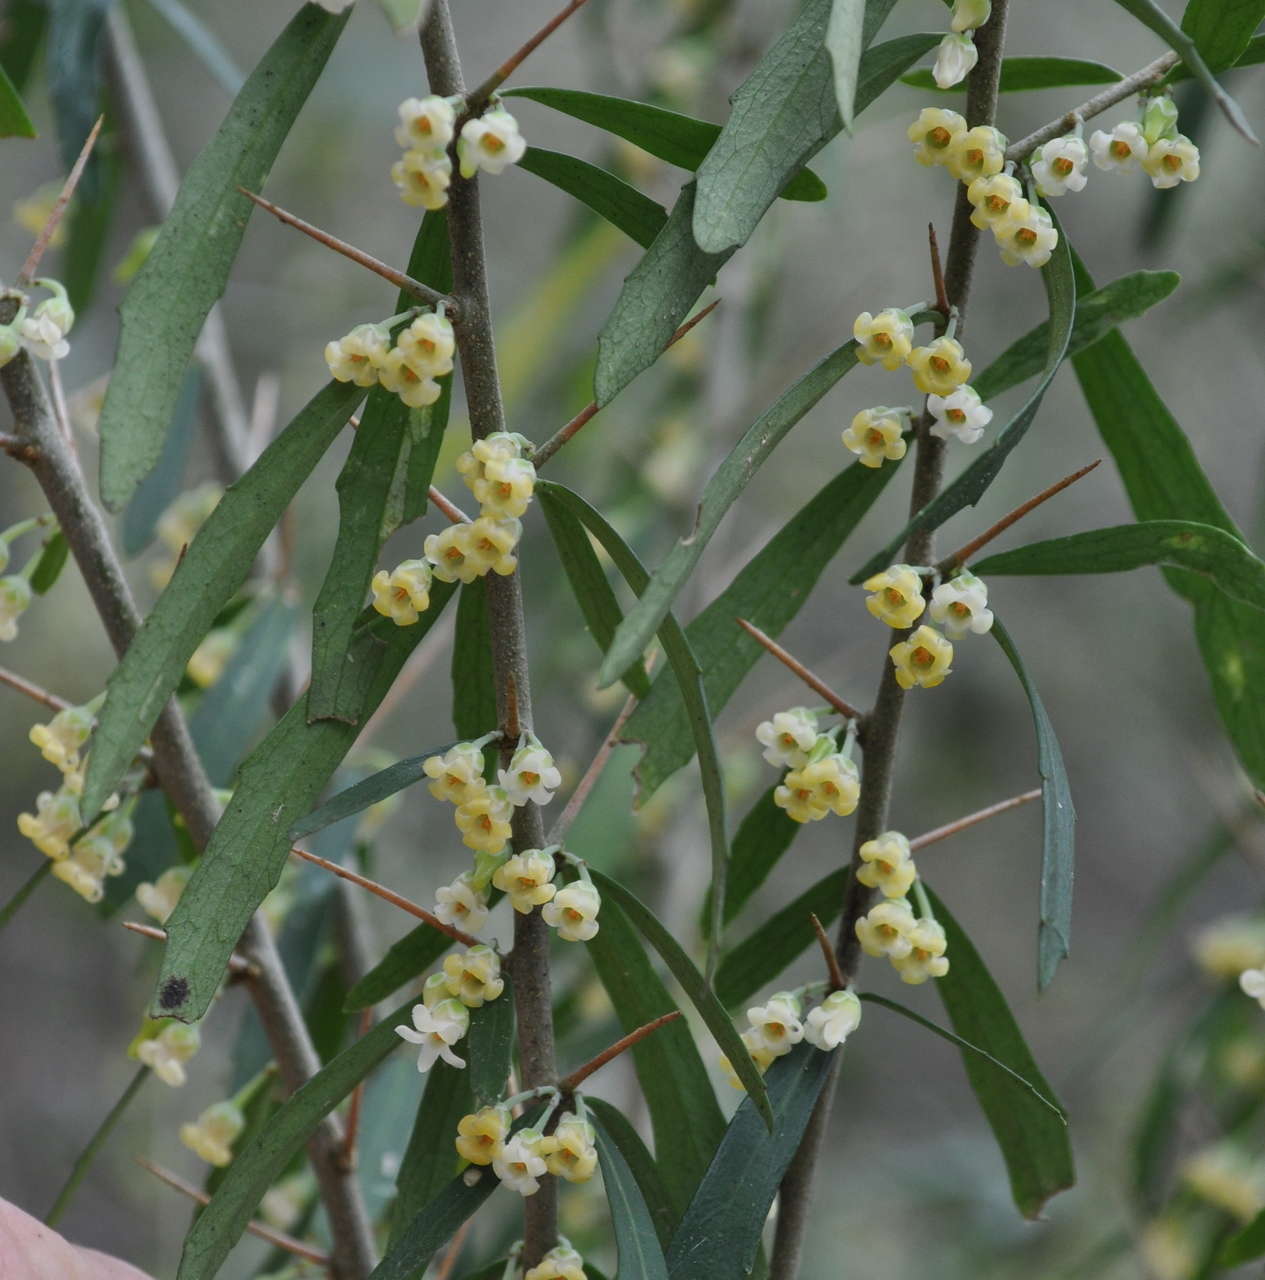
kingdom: Plantae
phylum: Tracheophyta
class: Magnoliopsida
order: Malpighiales
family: Violaceae
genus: Melicytus
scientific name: Melicytus dentatus
